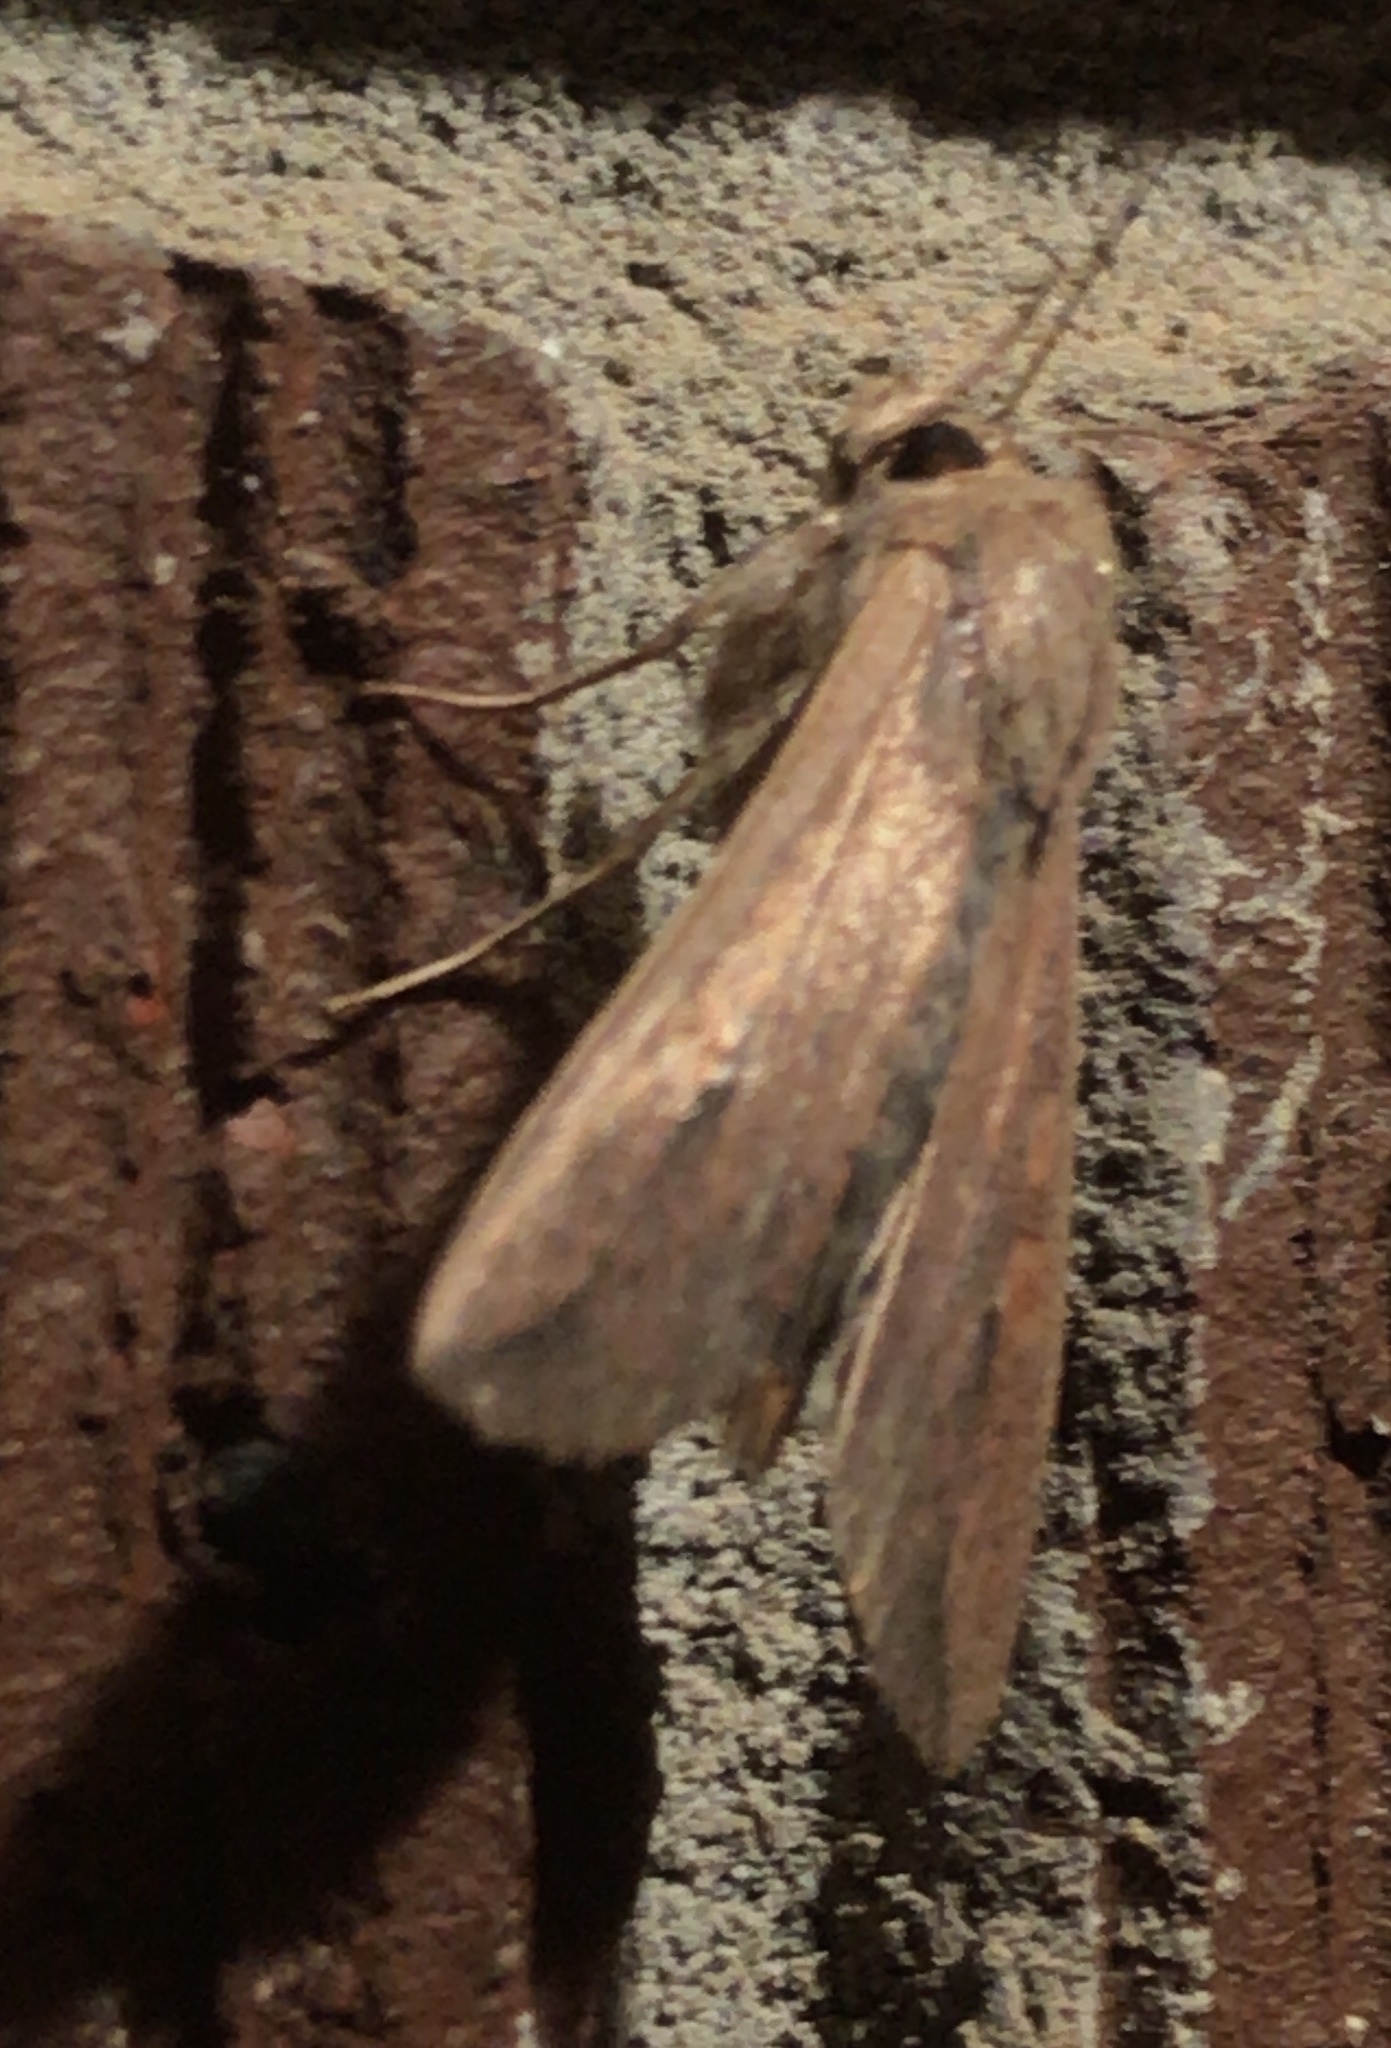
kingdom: Animalia
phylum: Arthropoda
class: Insecta
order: Lepidoptera
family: Noctuidae
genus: Mythimna
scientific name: Mythimna unipuncta
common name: White-speck
